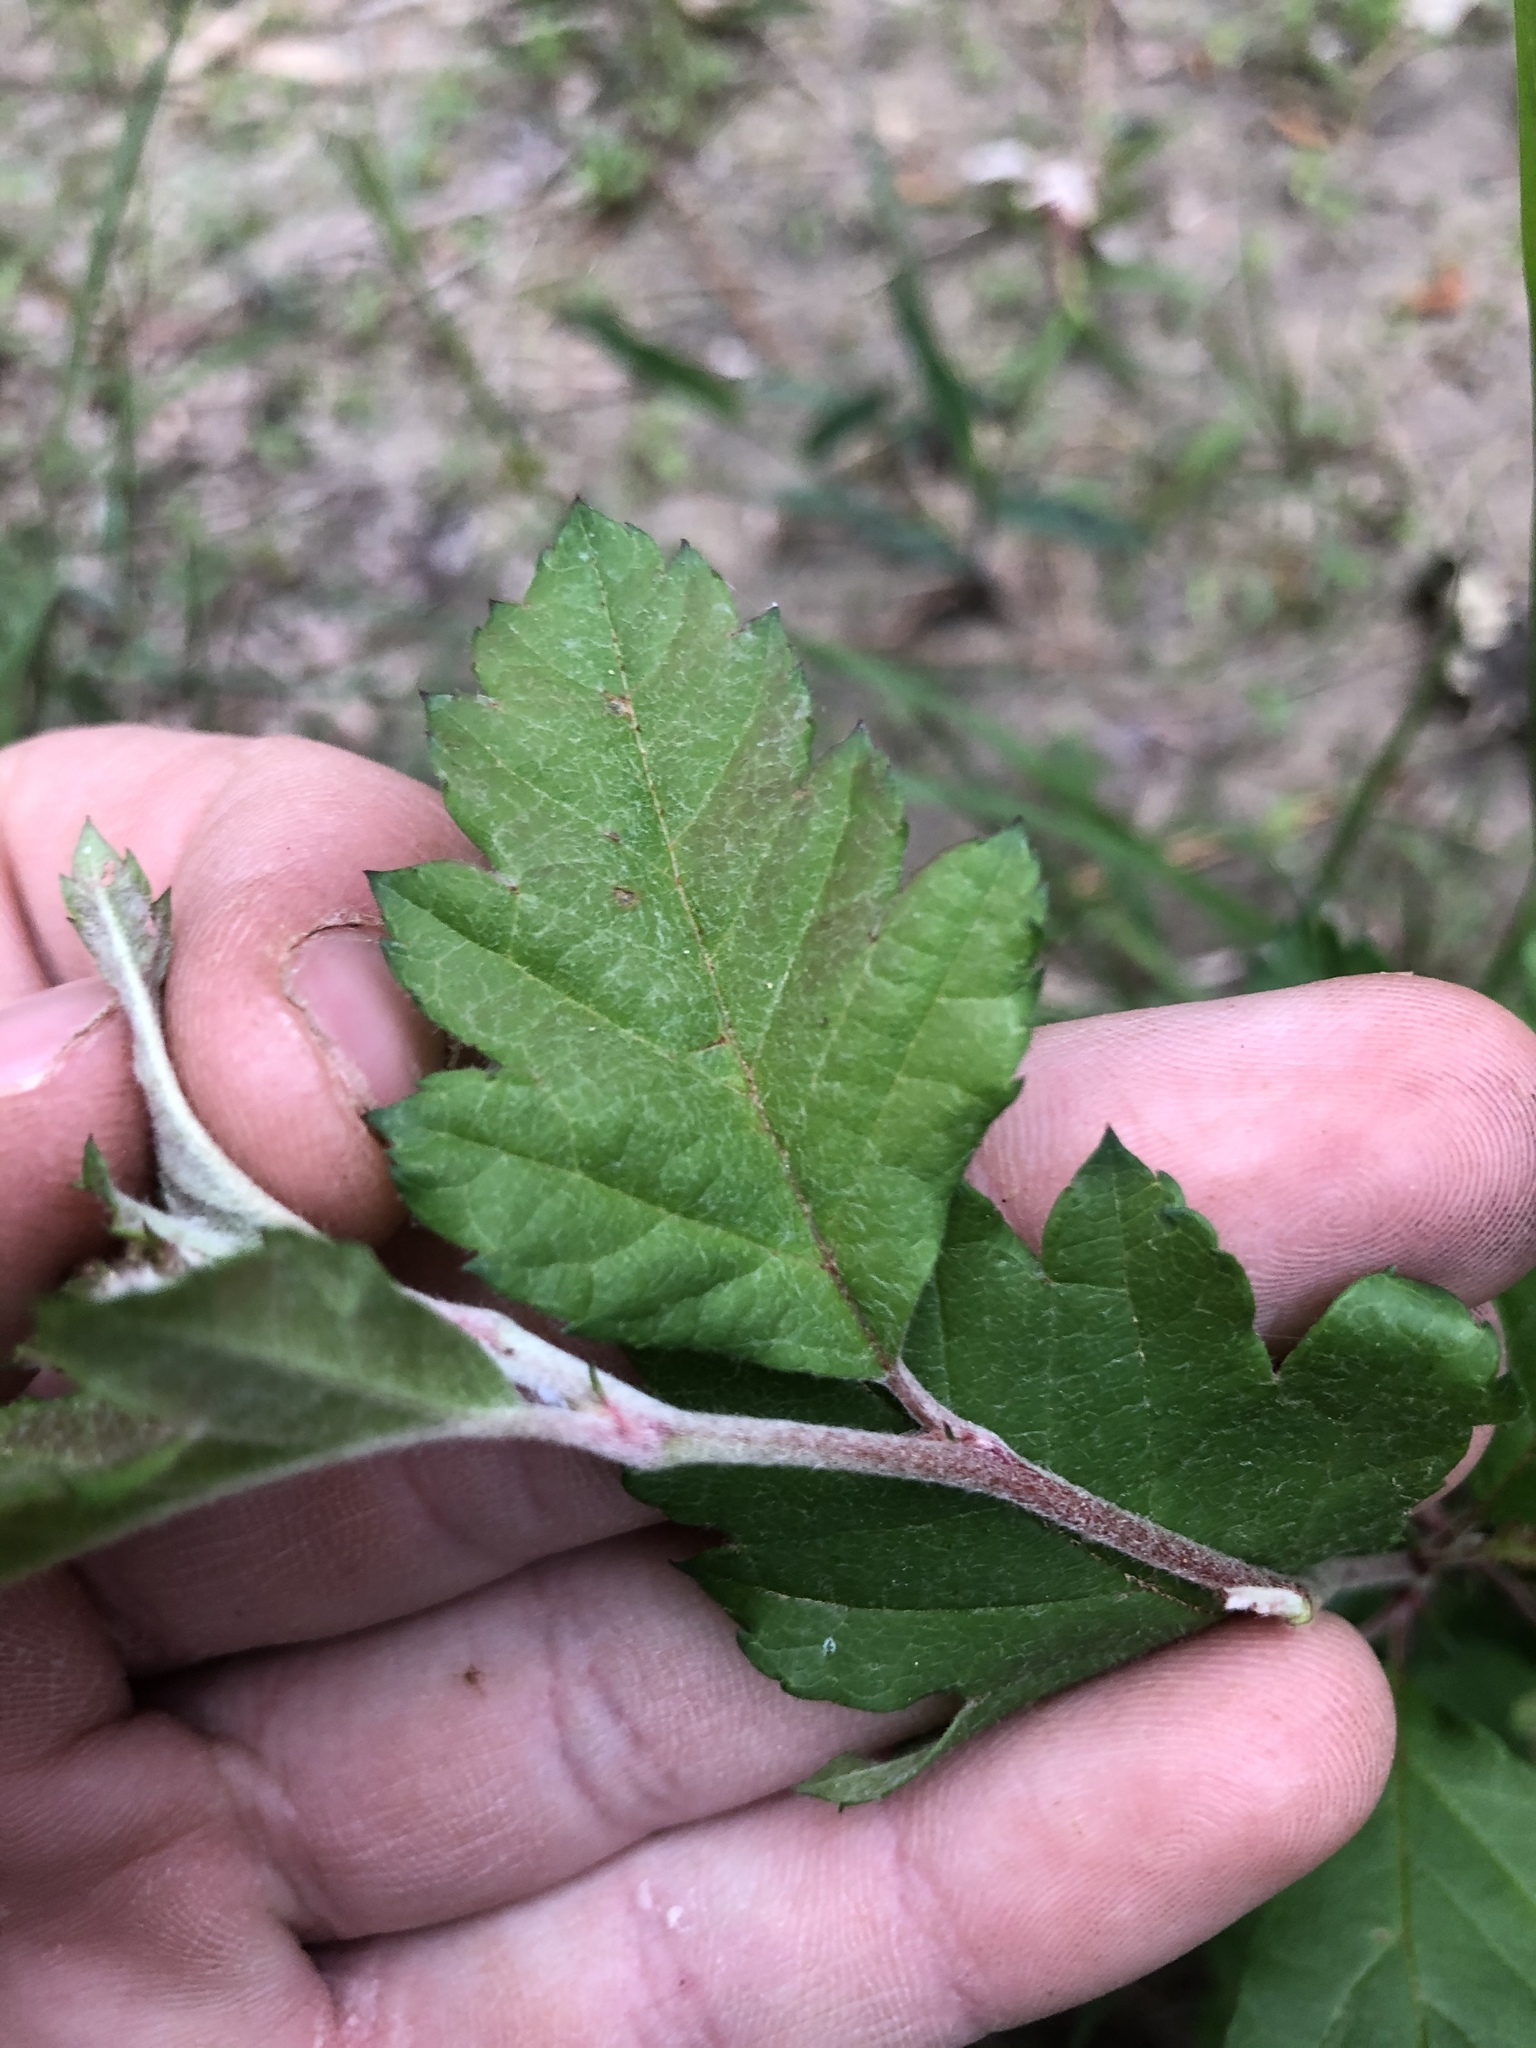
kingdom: Plantae
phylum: Tracheophyta
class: Magnoliopsida
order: Rosales
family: Rosaceae
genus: Malus
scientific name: Malus ioensis
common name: Iowa crab apple
